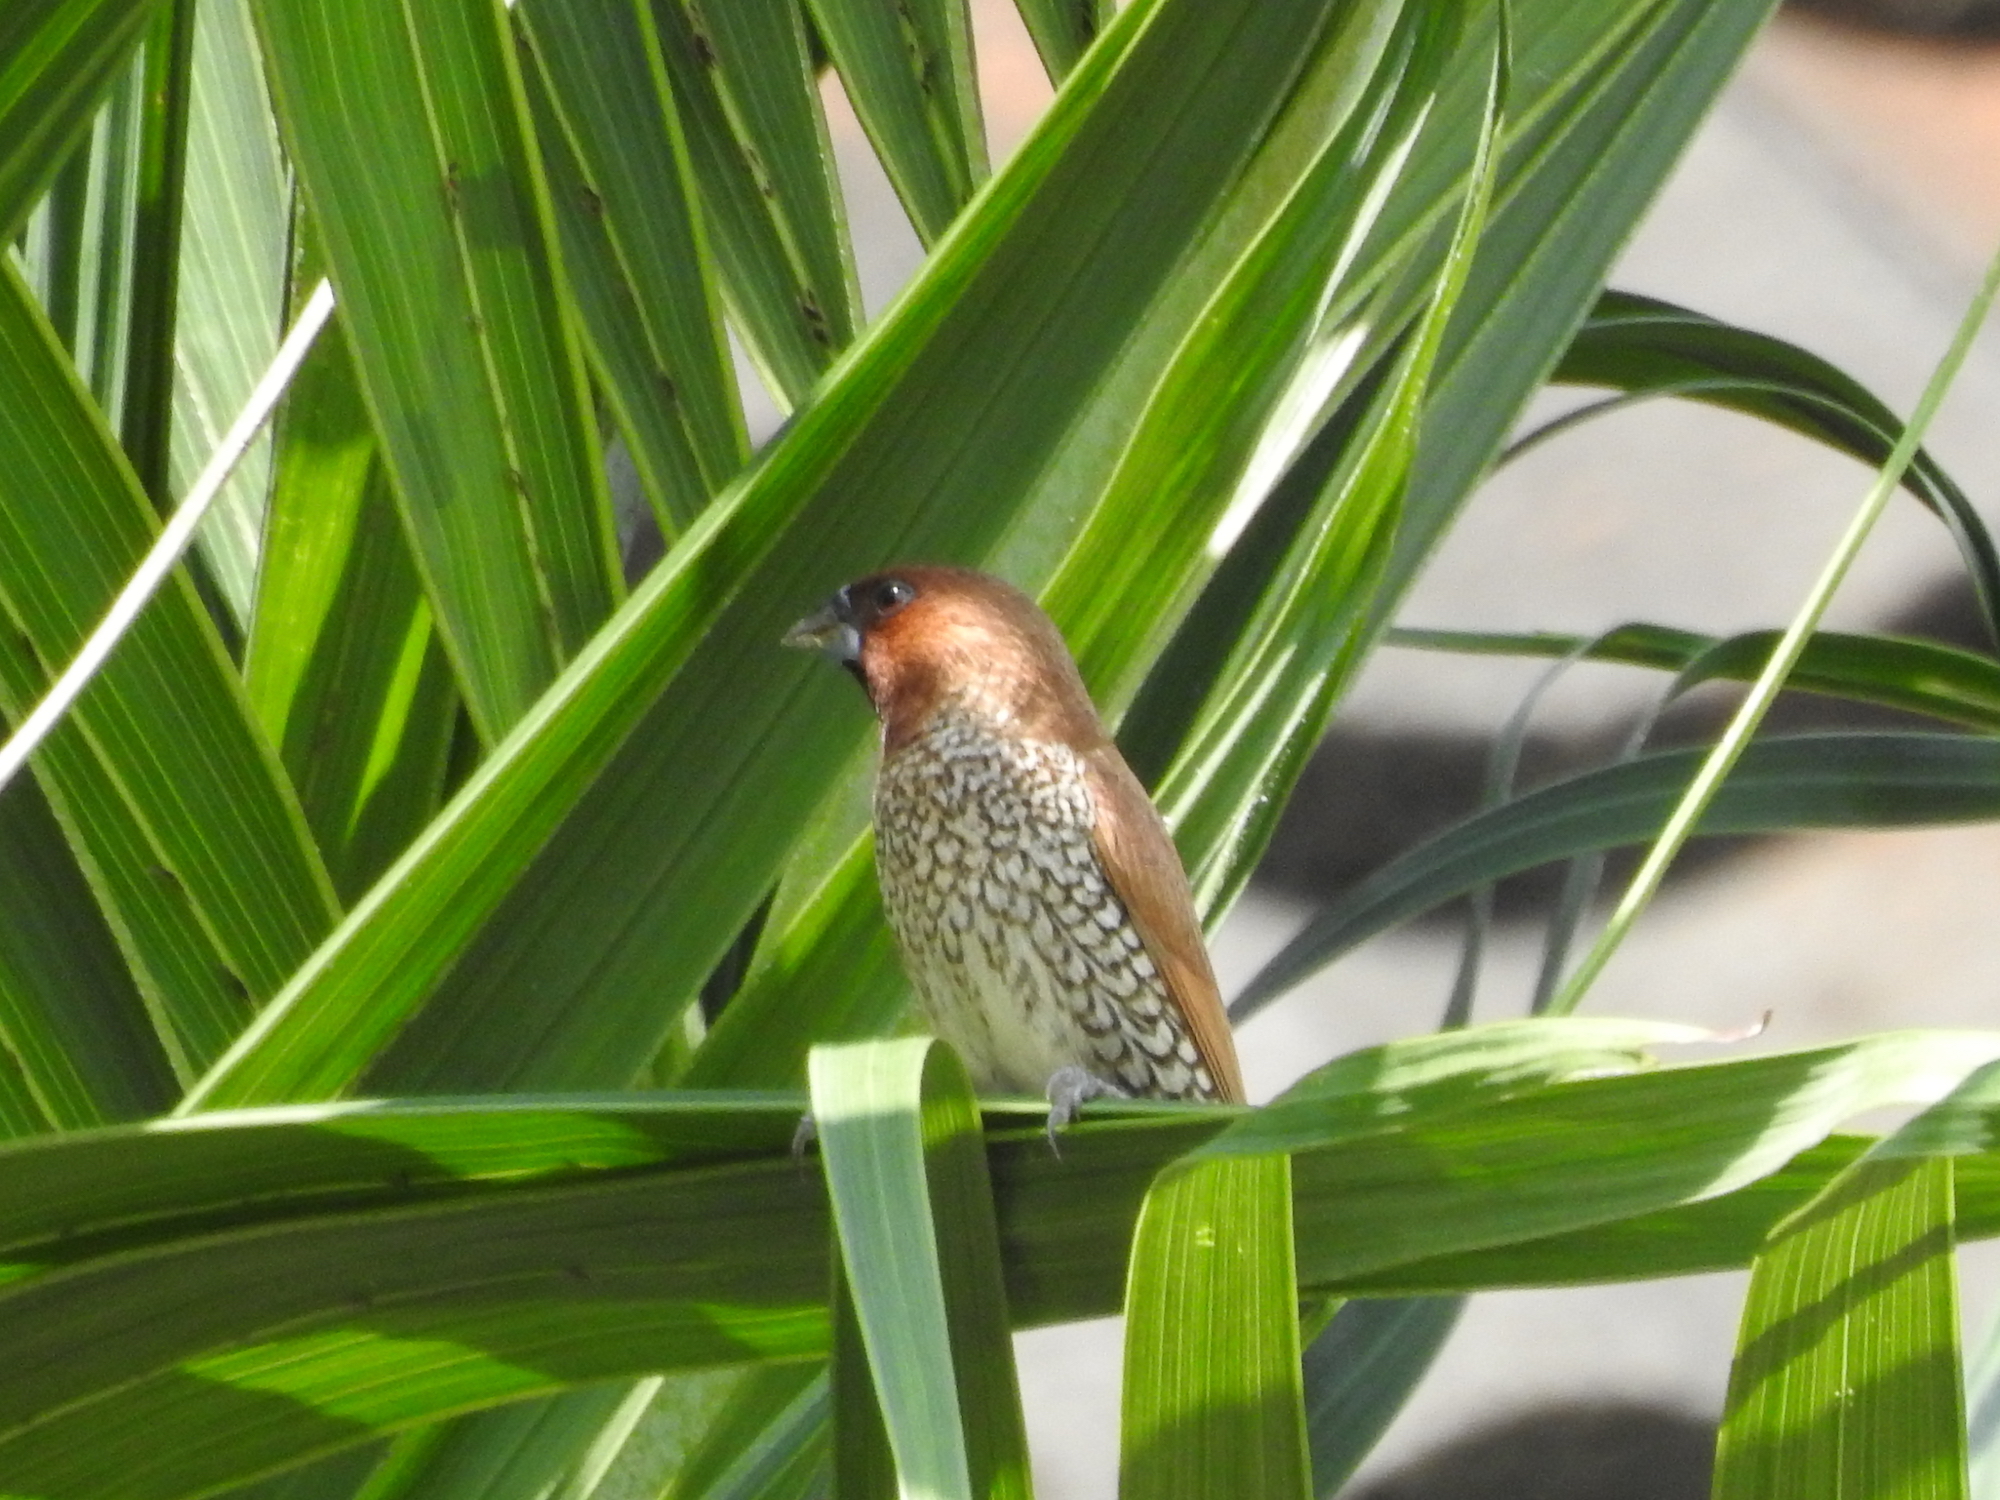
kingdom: Animalia
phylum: Chordata
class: Aves
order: Passeriformes
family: Estrildidae
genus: Lonchura
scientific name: Lonchura punctulata
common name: Scaly-breasted munia
